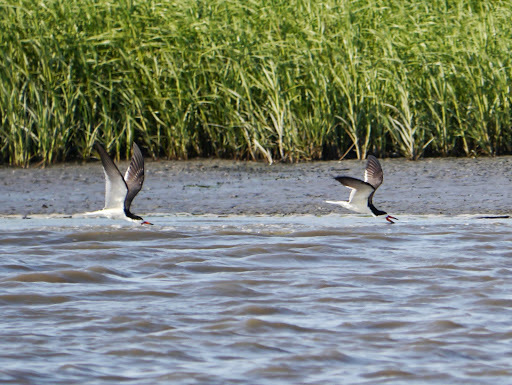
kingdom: Animalia
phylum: Chordata
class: Aves
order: Charadriiformes
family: Laridae
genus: Rynchops
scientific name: Rynchops niger
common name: Black skimmer
